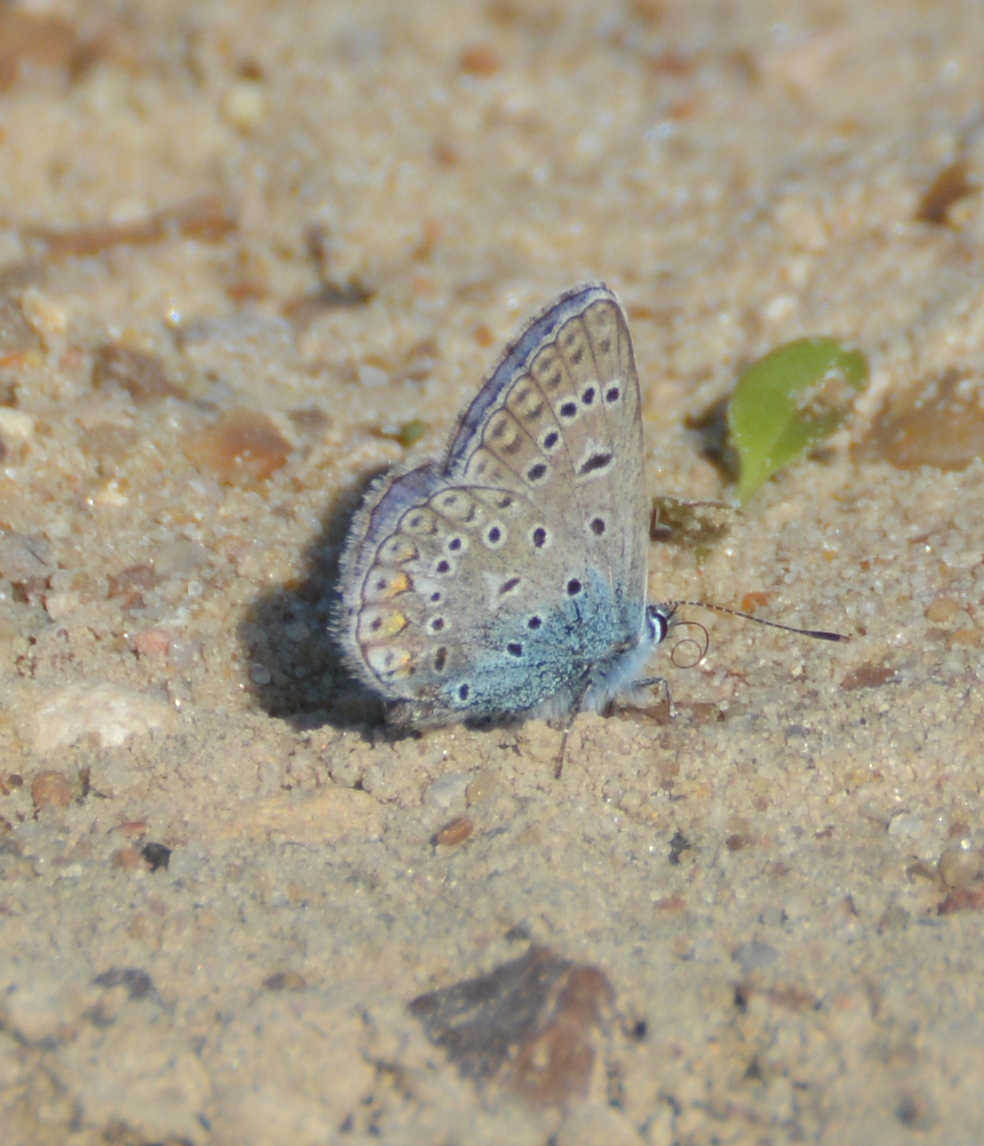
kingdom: Animalia
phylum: Arthropoda
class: Insecta
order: Lepidoptera
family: Lycaenidae
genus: Polyommatus
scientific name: Polyommatus icarus
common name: Common blue
